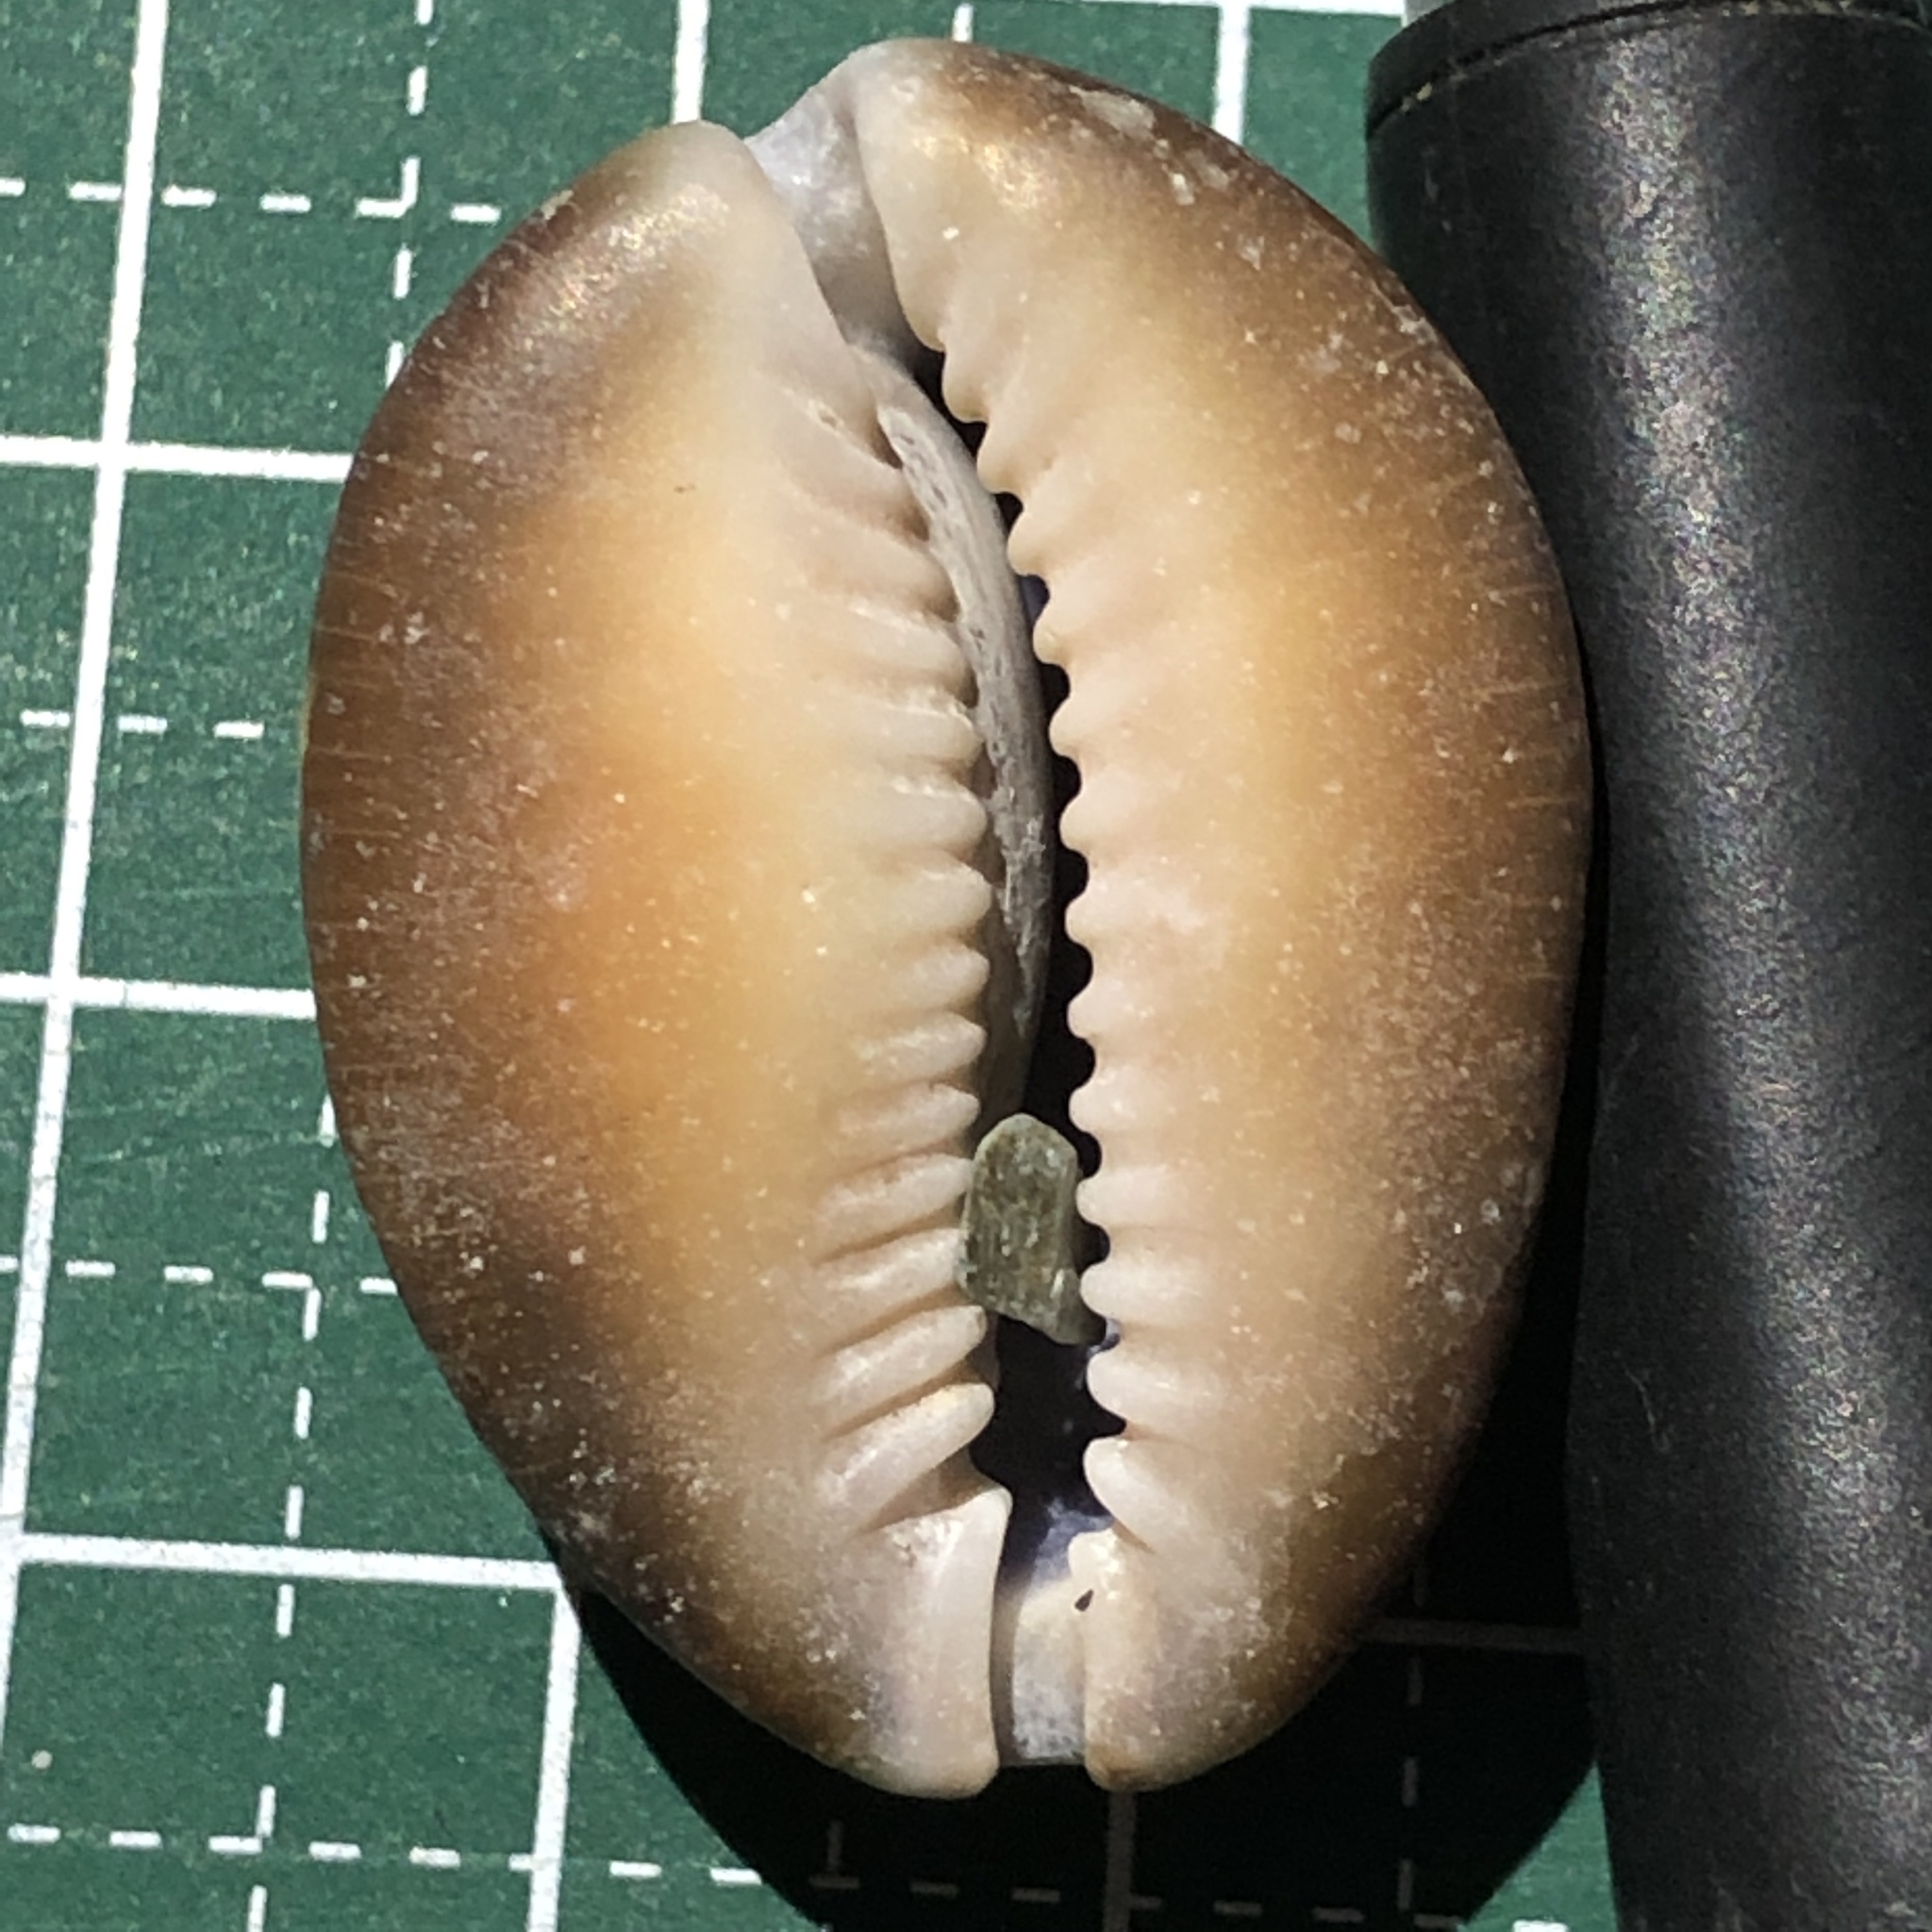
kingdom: Animalia
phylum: Mollusca
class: Gastropoda
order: Littorinimorpha
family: Cypraeidae
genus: Monetaria
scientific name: Monetaria caputserpentis
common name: Serpent's head cowrie
